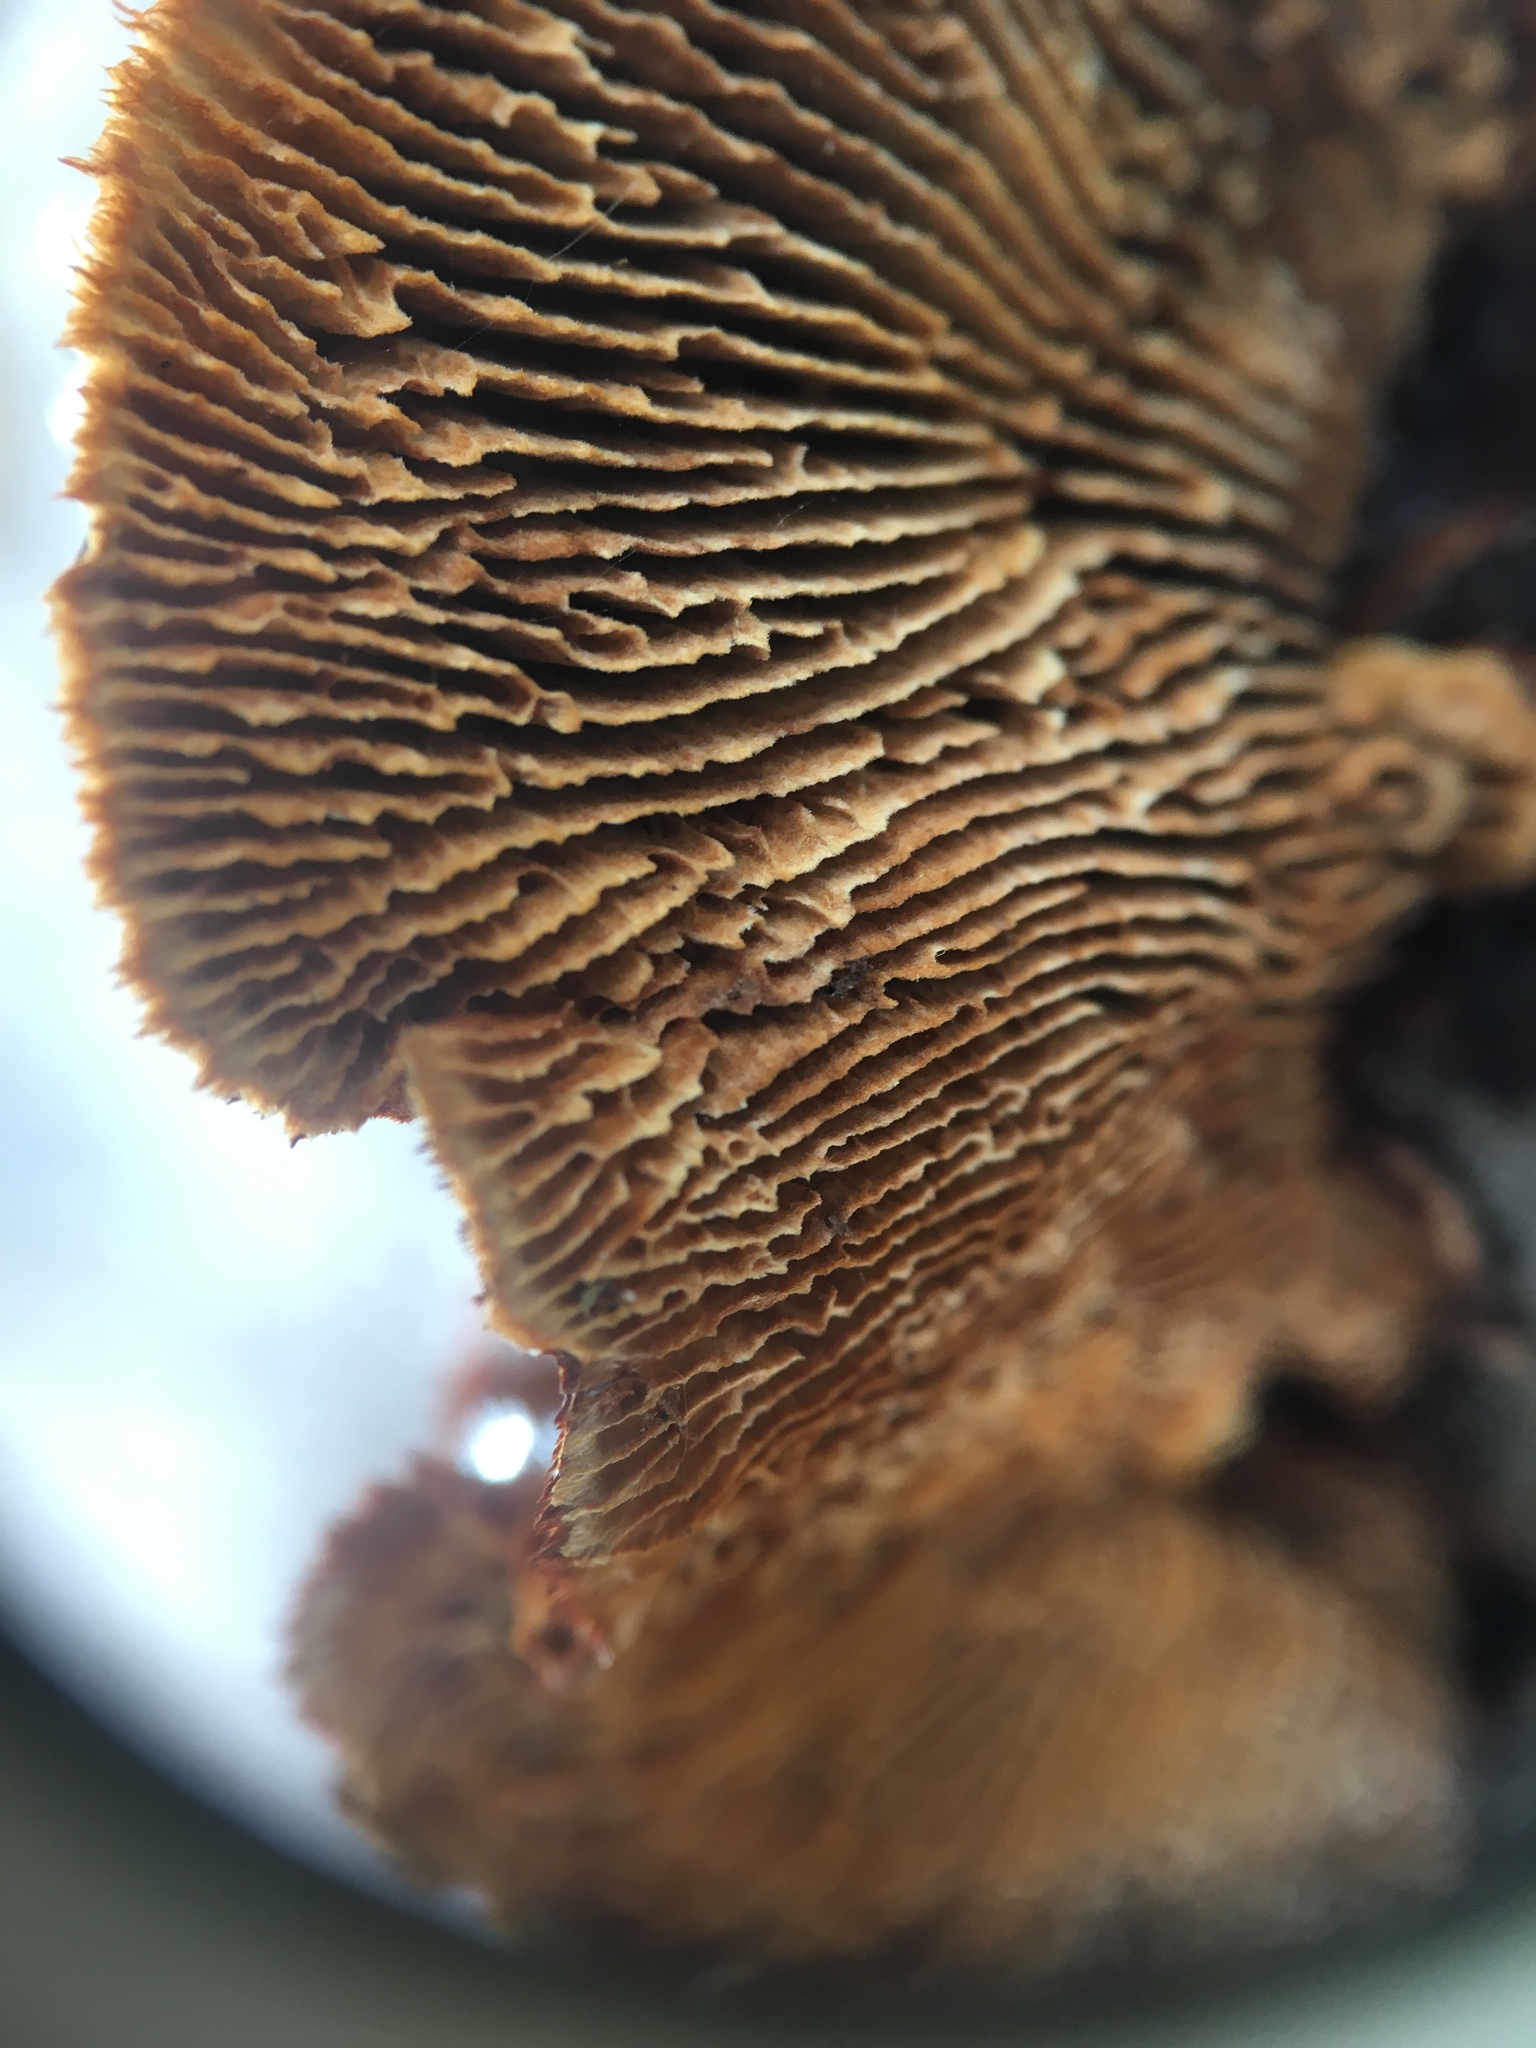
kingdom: Fungi
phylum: Basidiomycota
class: Agaricomycetes
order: Gloeophyllales
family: Gloeophyllaceae
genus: Gloeophyllum
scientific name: Gloeophyllum sepiarium
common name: Conifer mazegill
